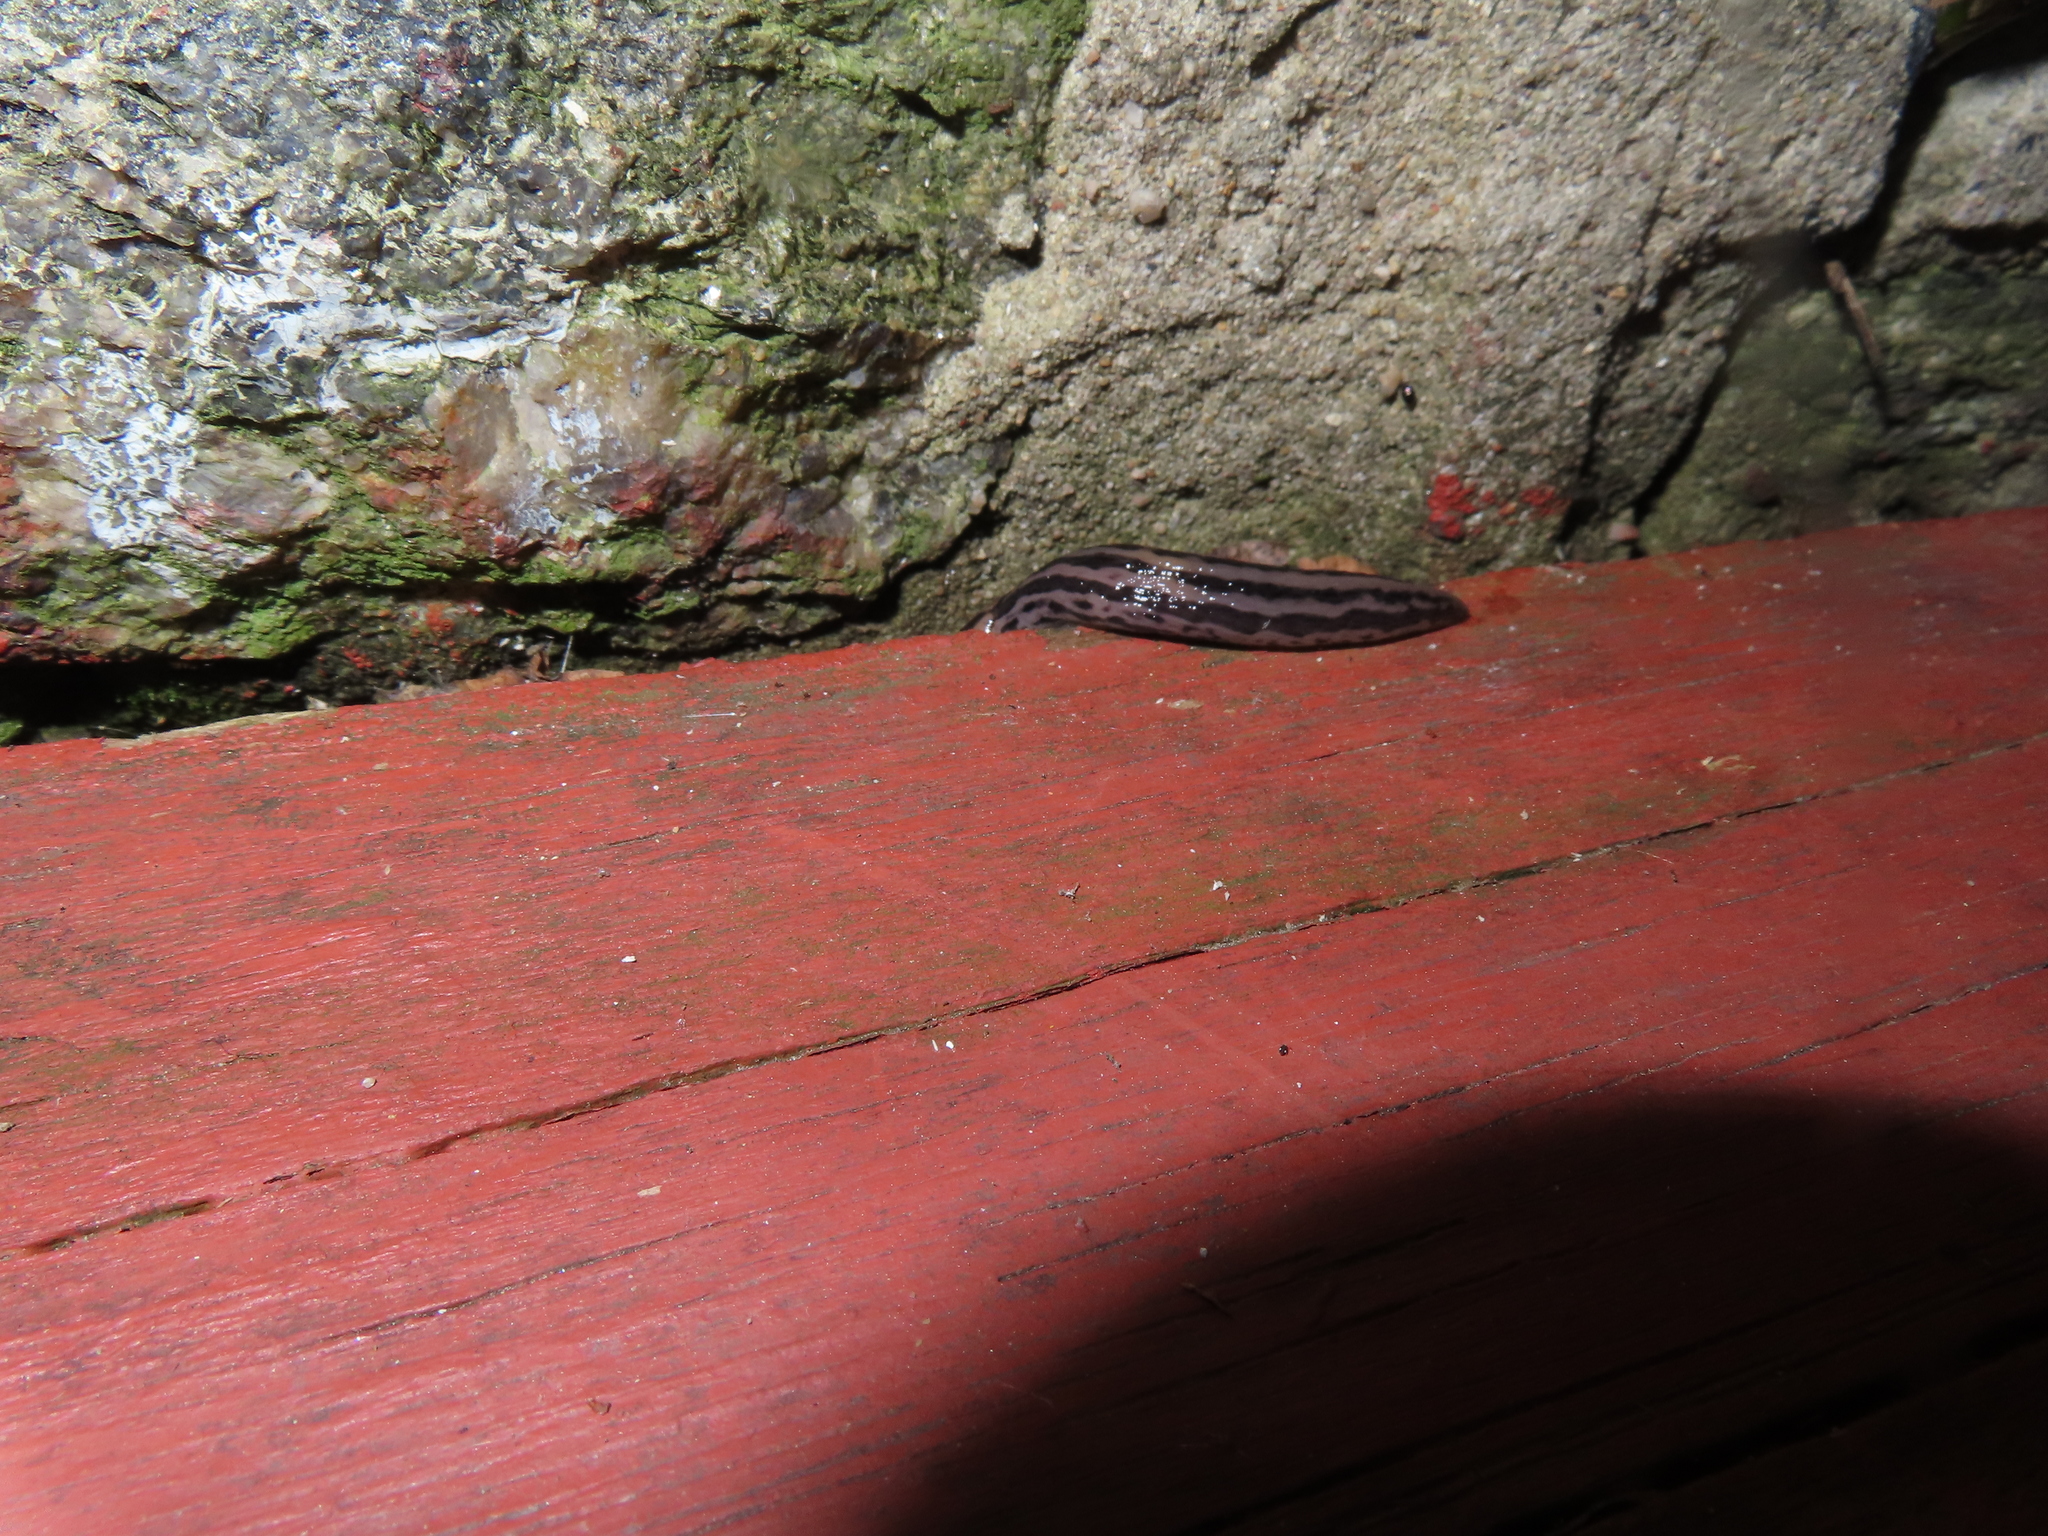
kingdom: Animalia
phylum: Mollusca
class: Gastropoda
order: Stylommatophora
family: Limacidae
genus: Limax
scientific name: Limax maximus
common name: Great grey slug
